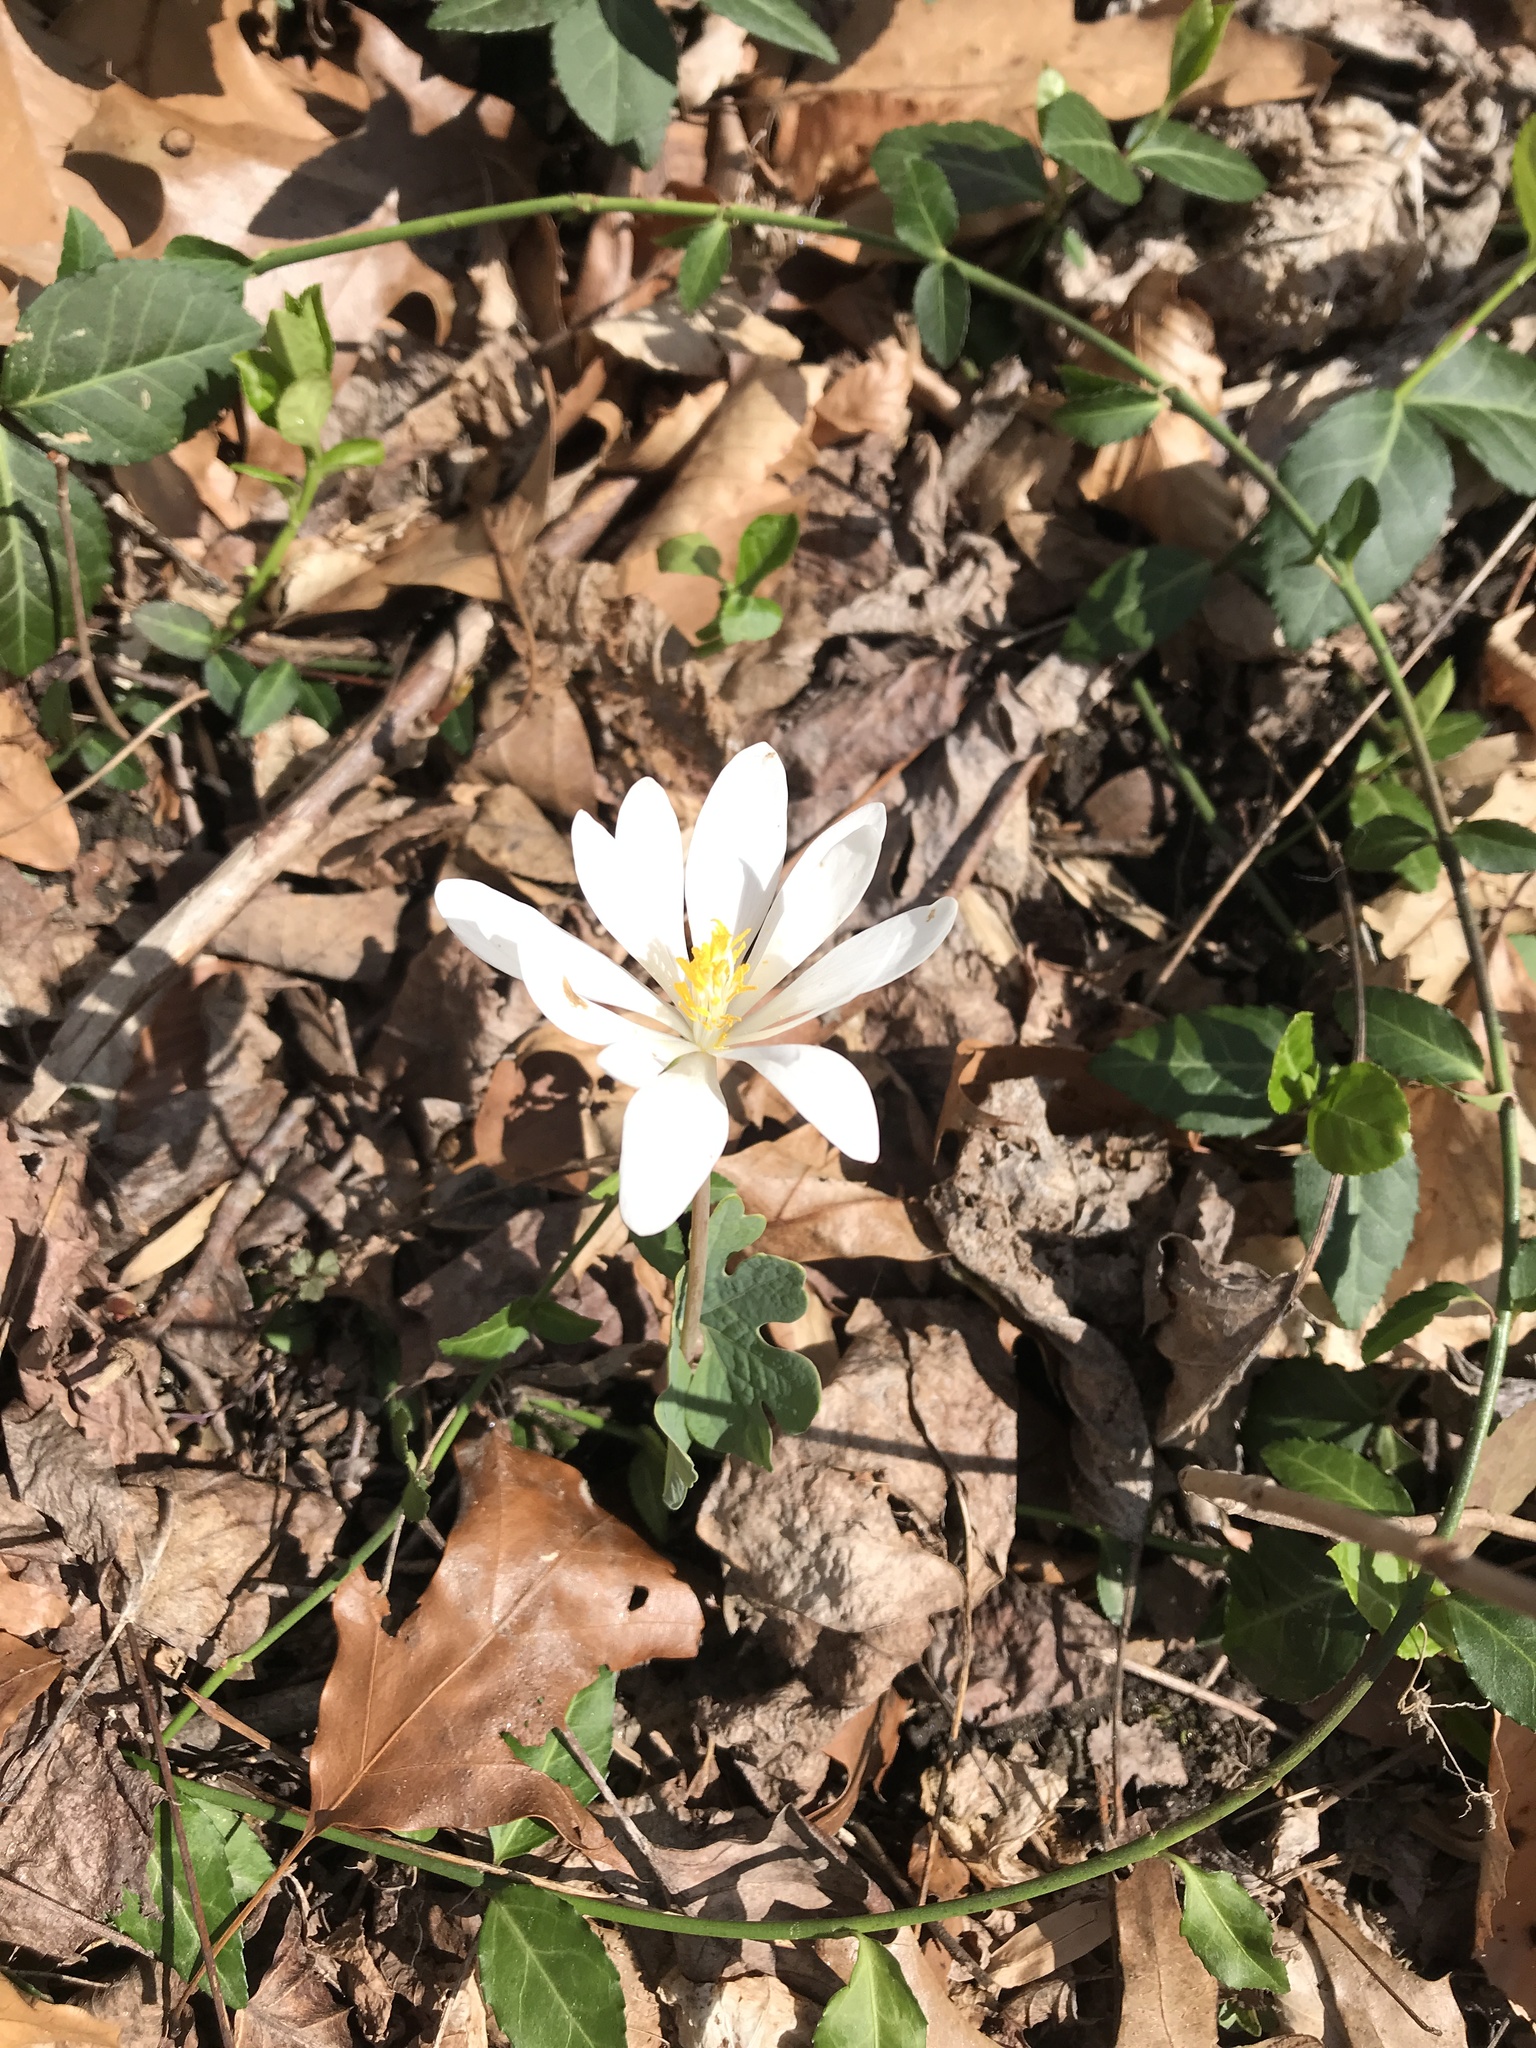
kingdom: Plantae
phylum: Tracheophyta
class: Magnoliopsida
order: Ranunculales
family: Papaveraceae
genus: Sanguinaria
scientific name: Sanguinaria canadensis
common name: Bloodroot
